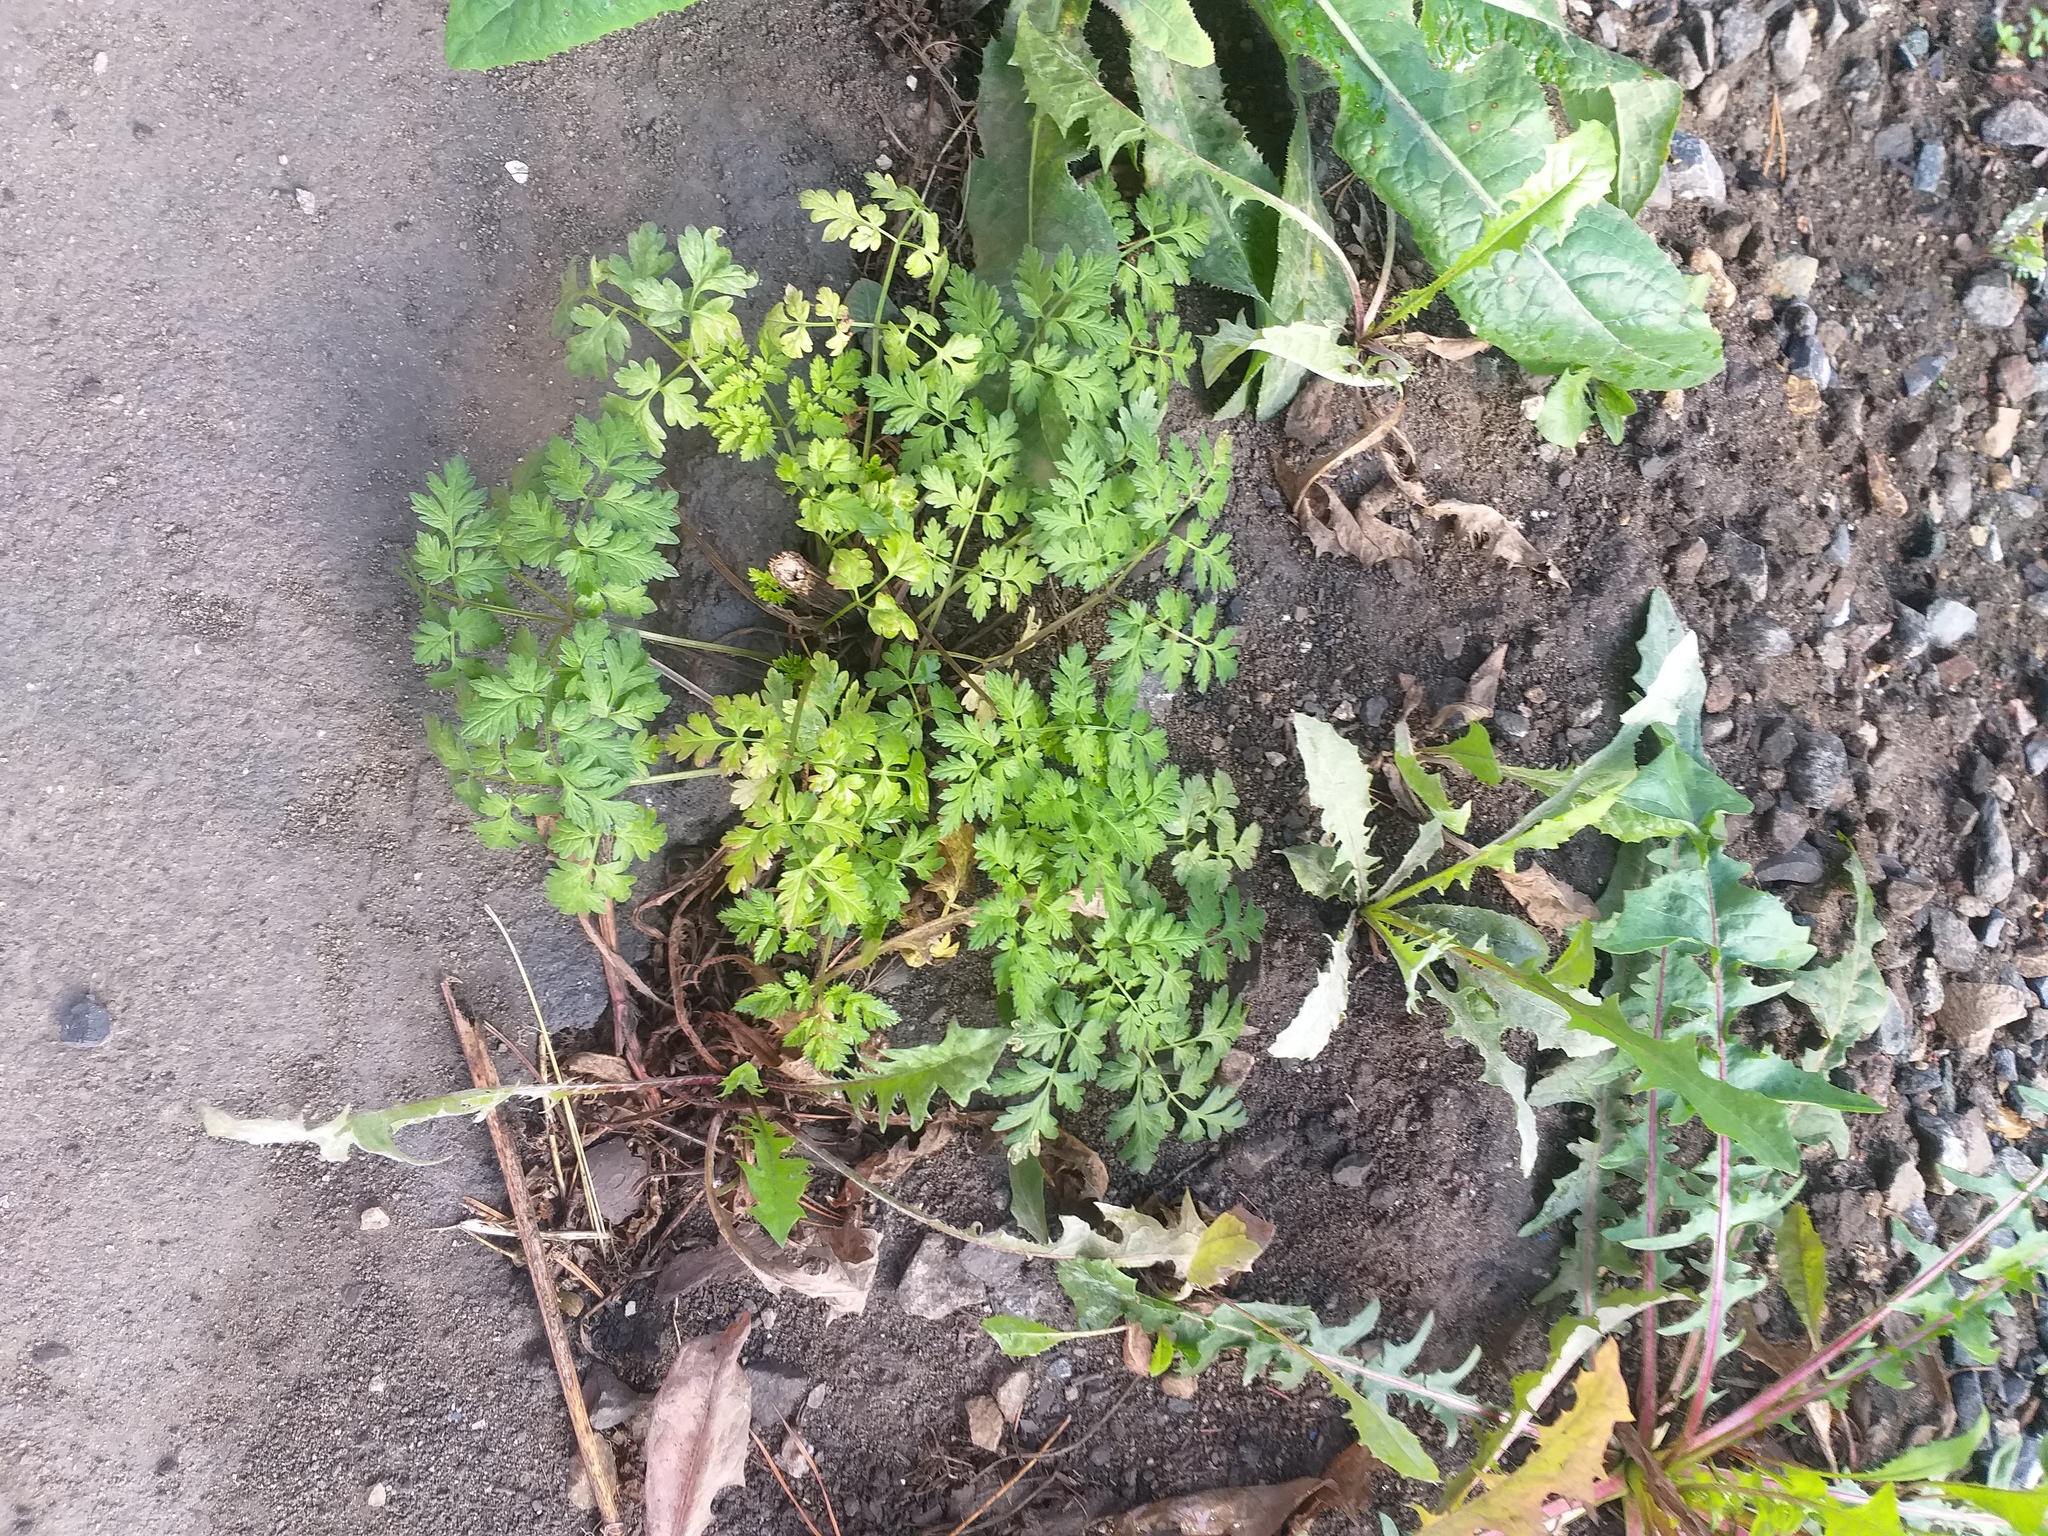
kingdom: Plantae
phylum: Tracheophyta
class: Magnoliopsida
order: Apiales
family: Apiaceae
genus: Anthriscus
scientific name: Anthriscus sylvestris
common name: Cow parsley
